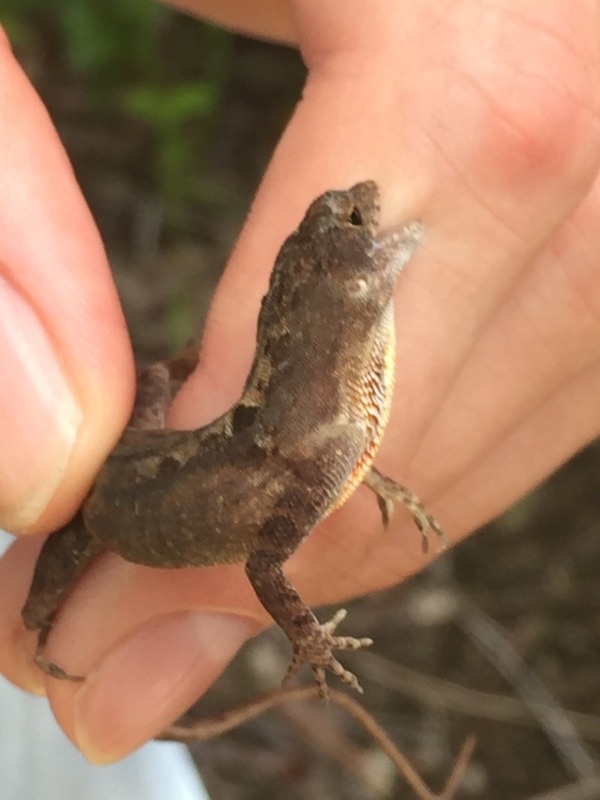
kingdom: Animalia
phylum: Chordata
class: Squamata
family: Dactyloidae
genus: Anolis
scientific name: Anolis sagrei
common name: Brown anole
